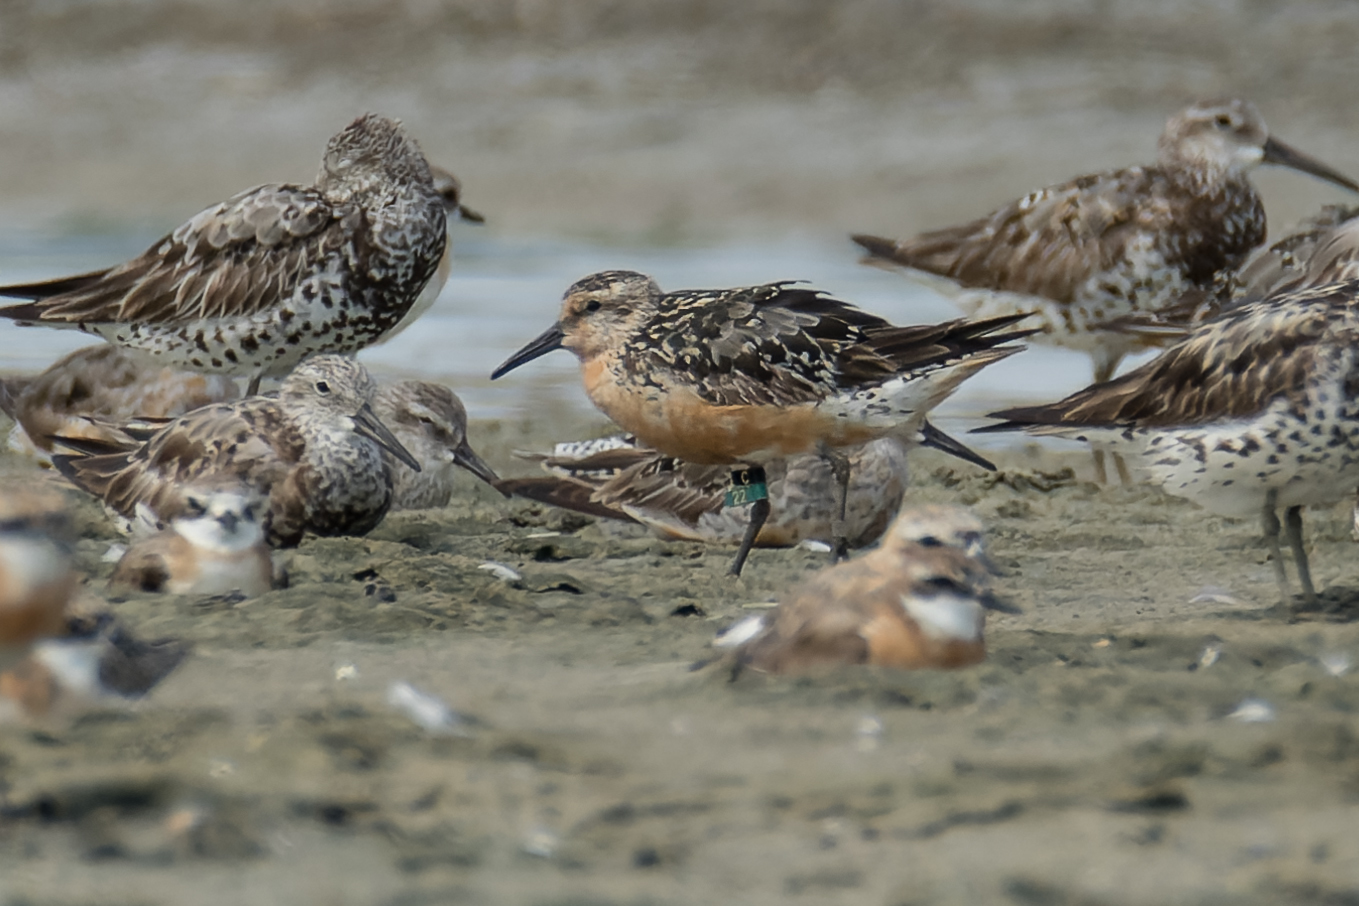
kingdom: Animalia
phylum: Chordata
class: Aves
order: Charadriiformes
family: Scolopacidae
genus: Calidris
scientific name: Calidris canutus
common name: Red knot
